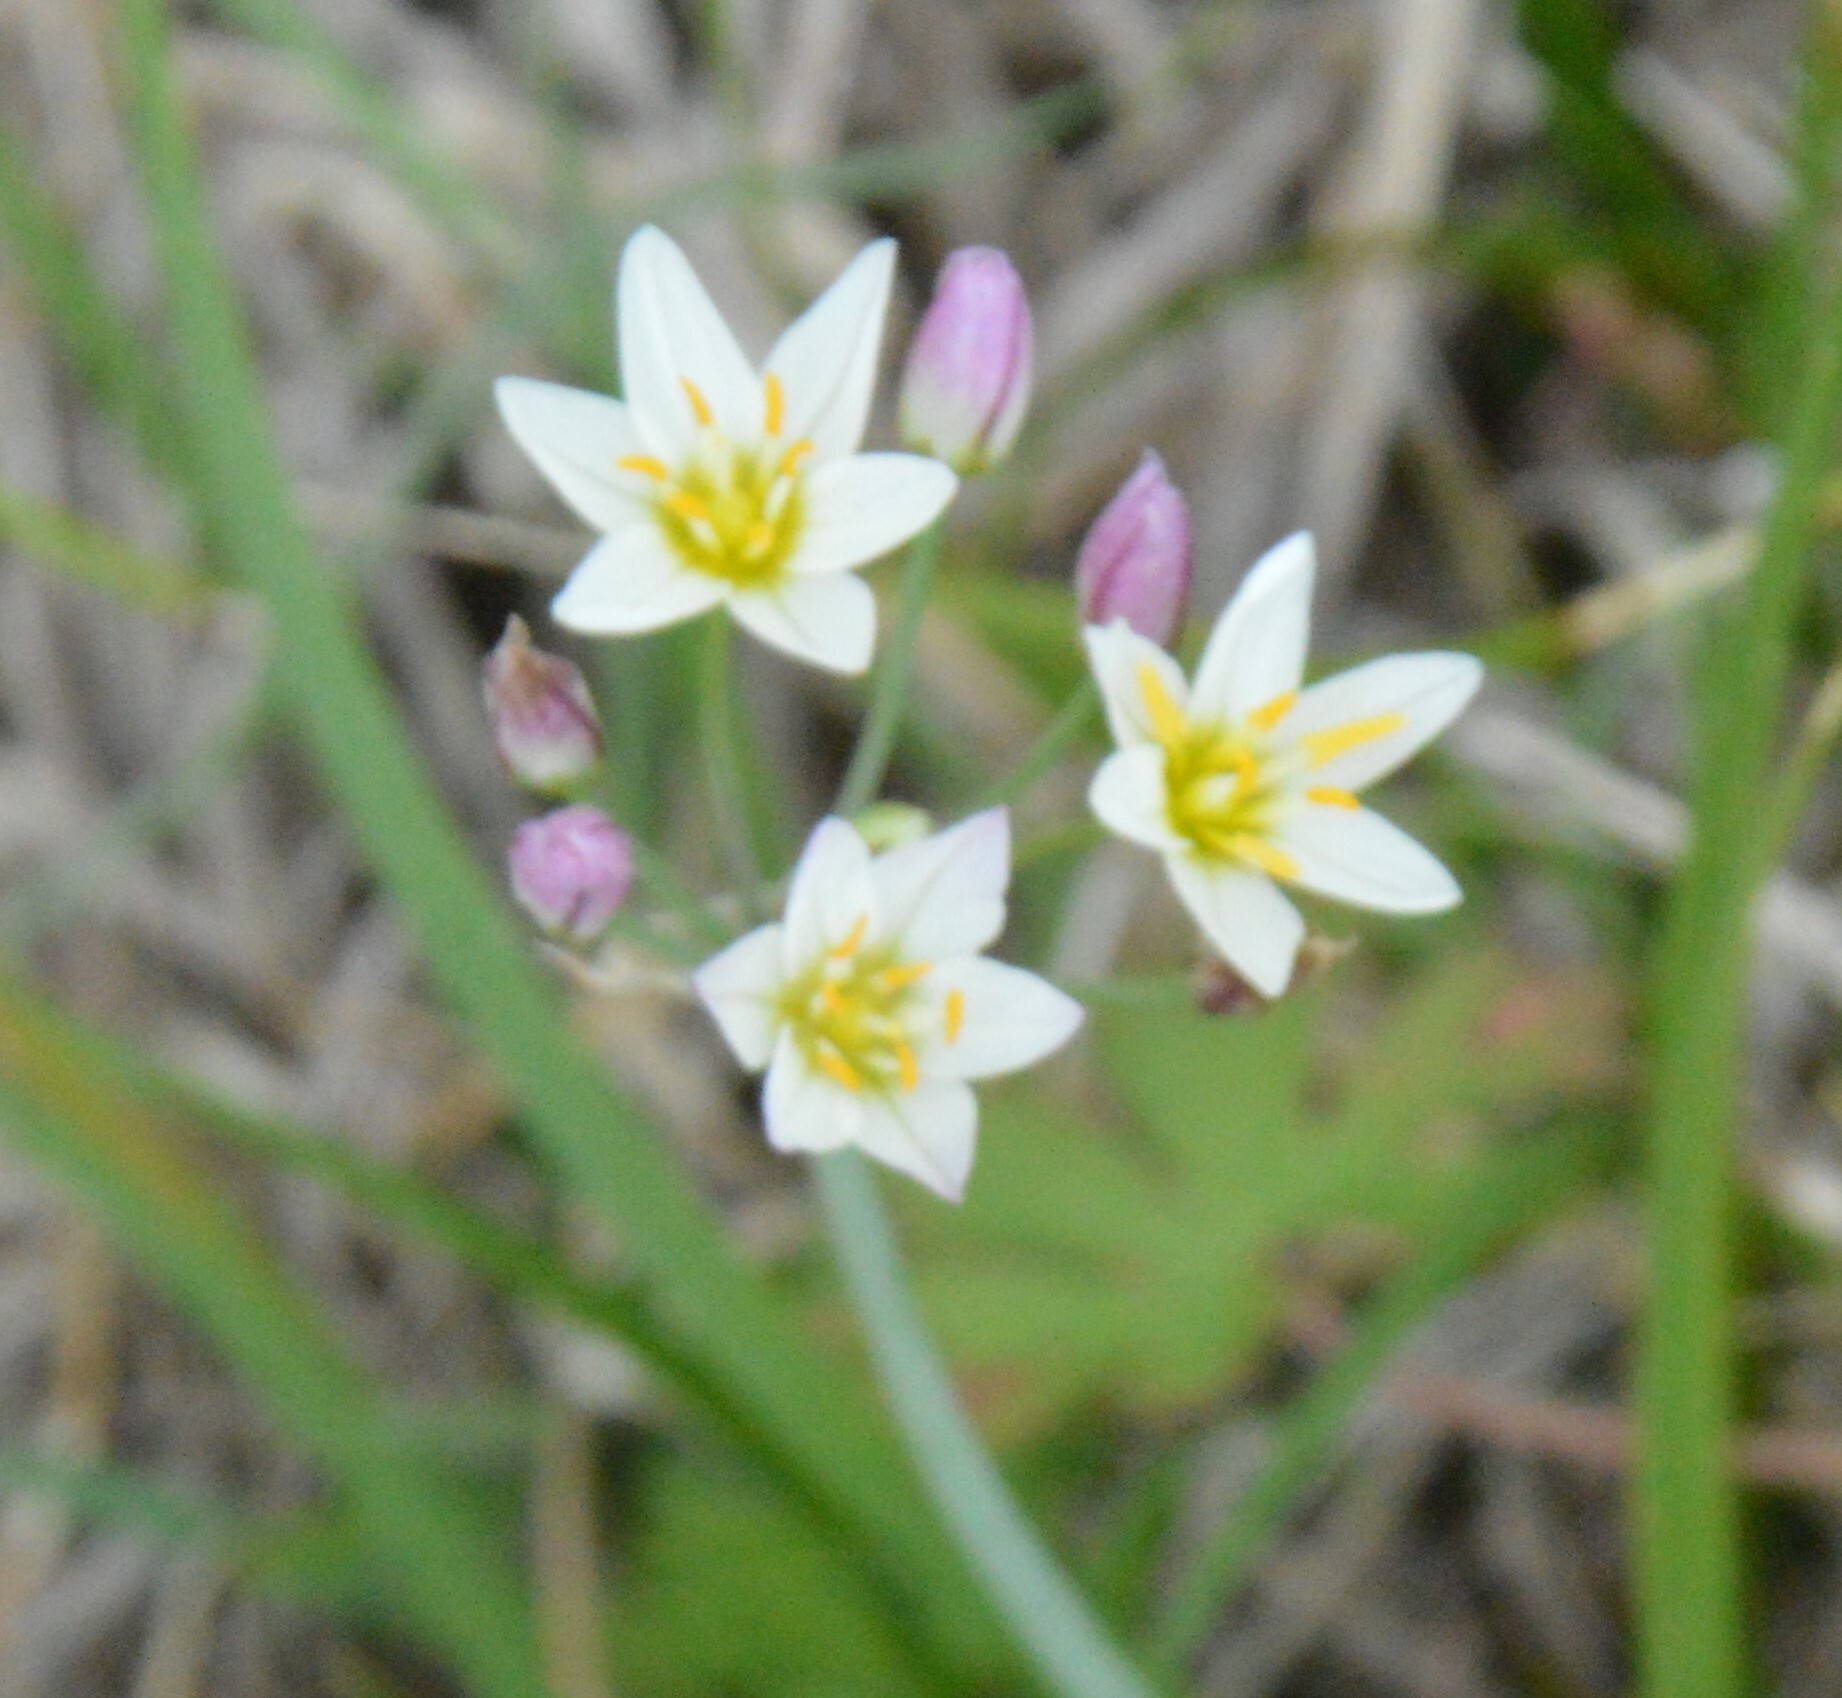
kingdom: Plantae
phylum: Tracheophyta
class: Liliopsida
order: Asparagales
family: Amaryllidaceae
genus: Nothoscordum
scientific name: Nothoscordum bivalve
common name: Crow-poison
